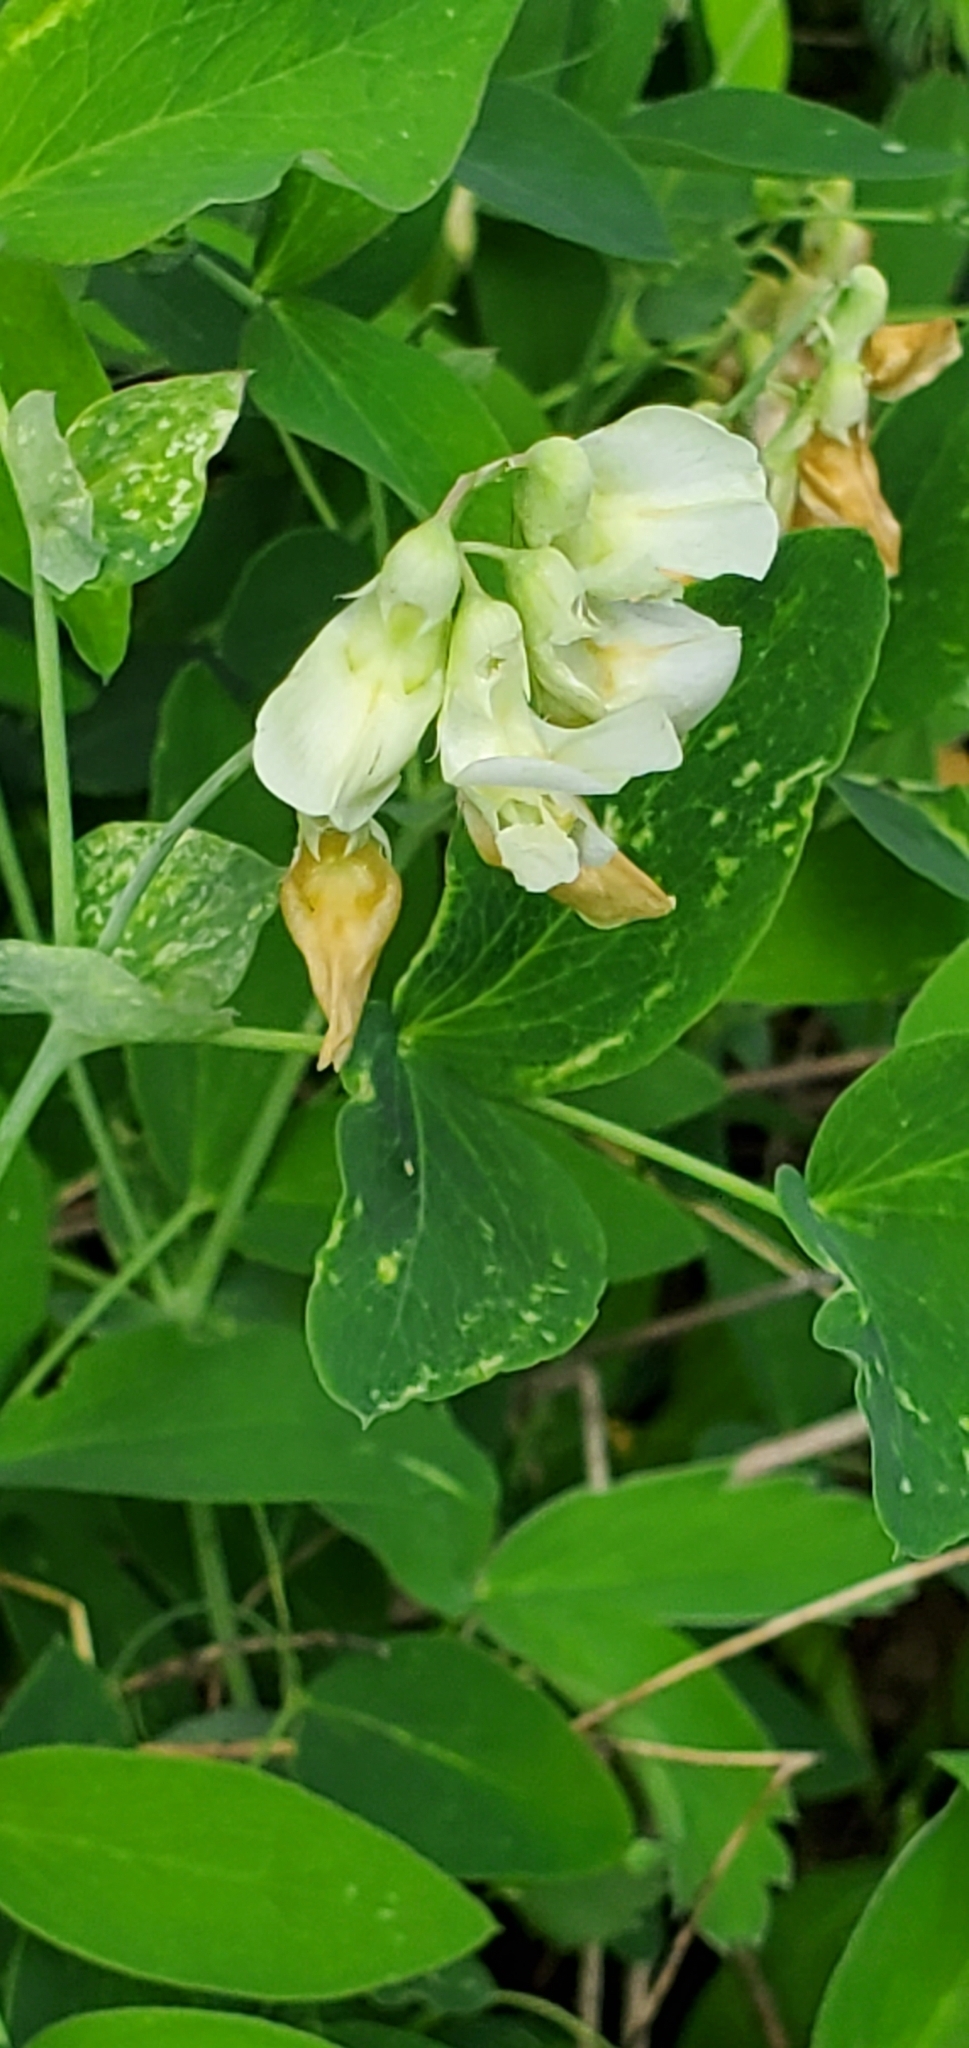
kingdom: Plantae
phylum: Tracheophyta
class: Magnoliopsida
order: Fabales
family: Fabaceae
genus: Lathyrus
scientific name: Lathyrus ochroleucus
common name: Pale vetchling
